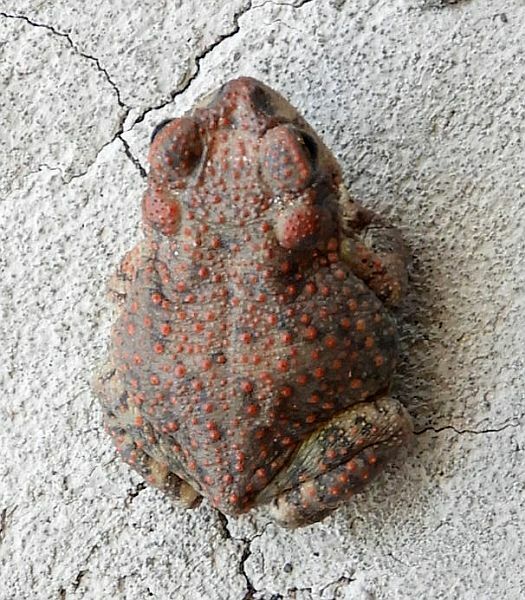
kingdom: Animalia
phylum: Chordata
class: Amphibia
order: Anura
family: Bufonidae
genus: Anaxyrus
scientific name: Anaxyrus punctatus
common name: Red-spotted toad
